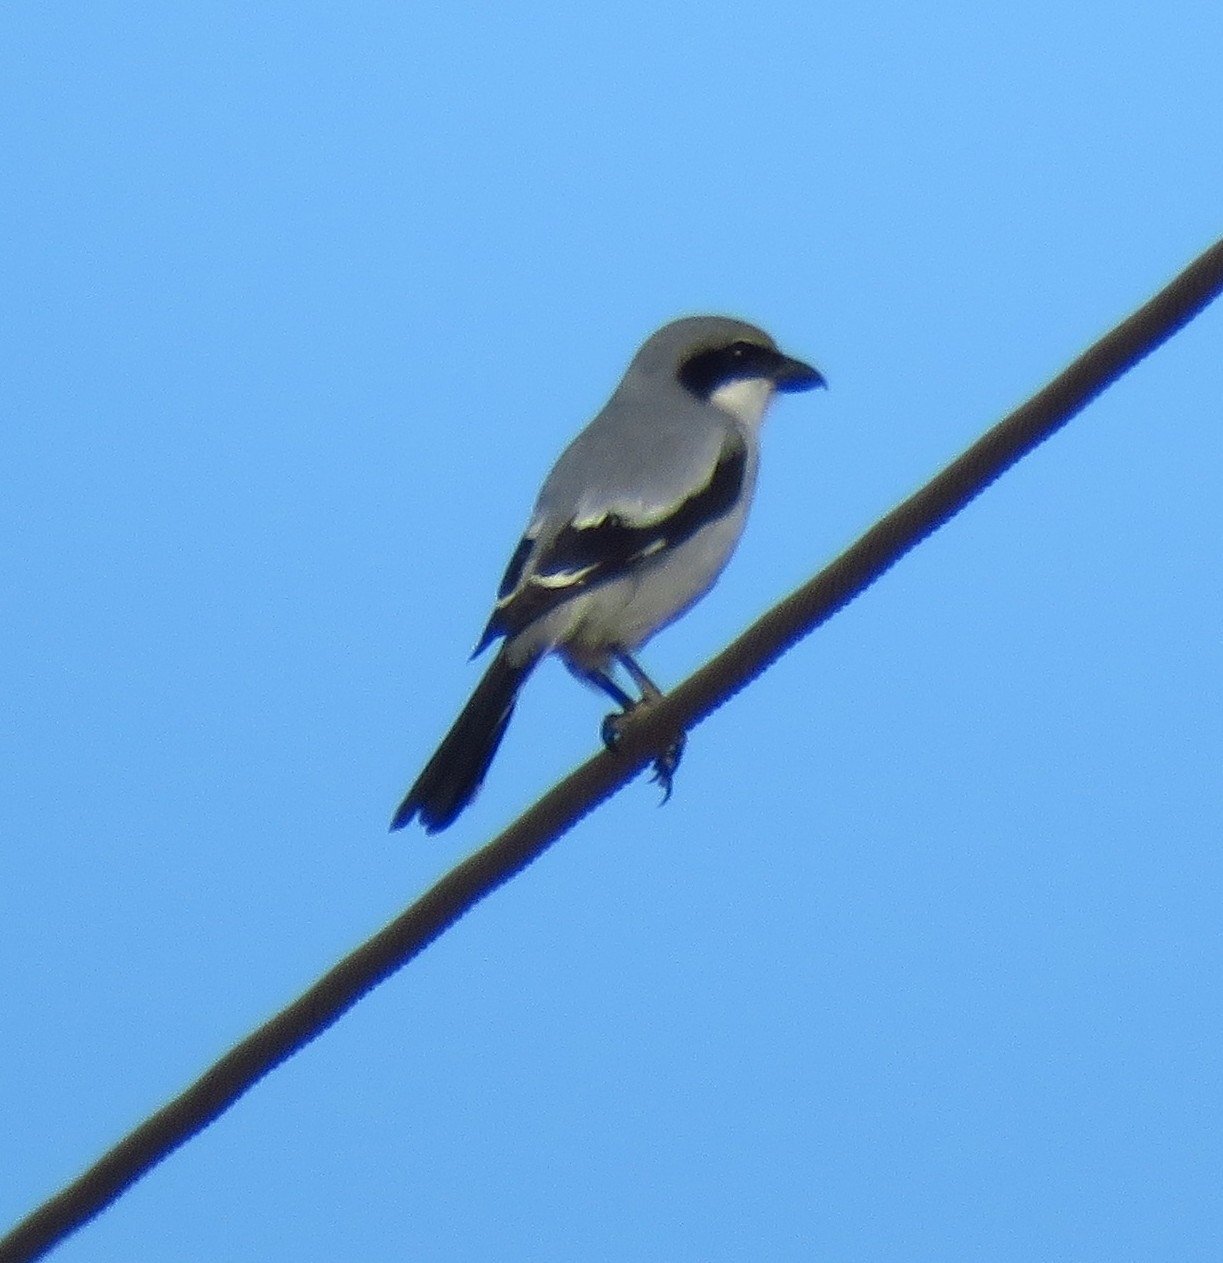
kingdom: Animalia
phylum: Chordata
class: Aves
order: Passeriformes
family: Laniidae
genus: Lanius
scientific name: Lanius excubitor
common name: Great grey shrike
